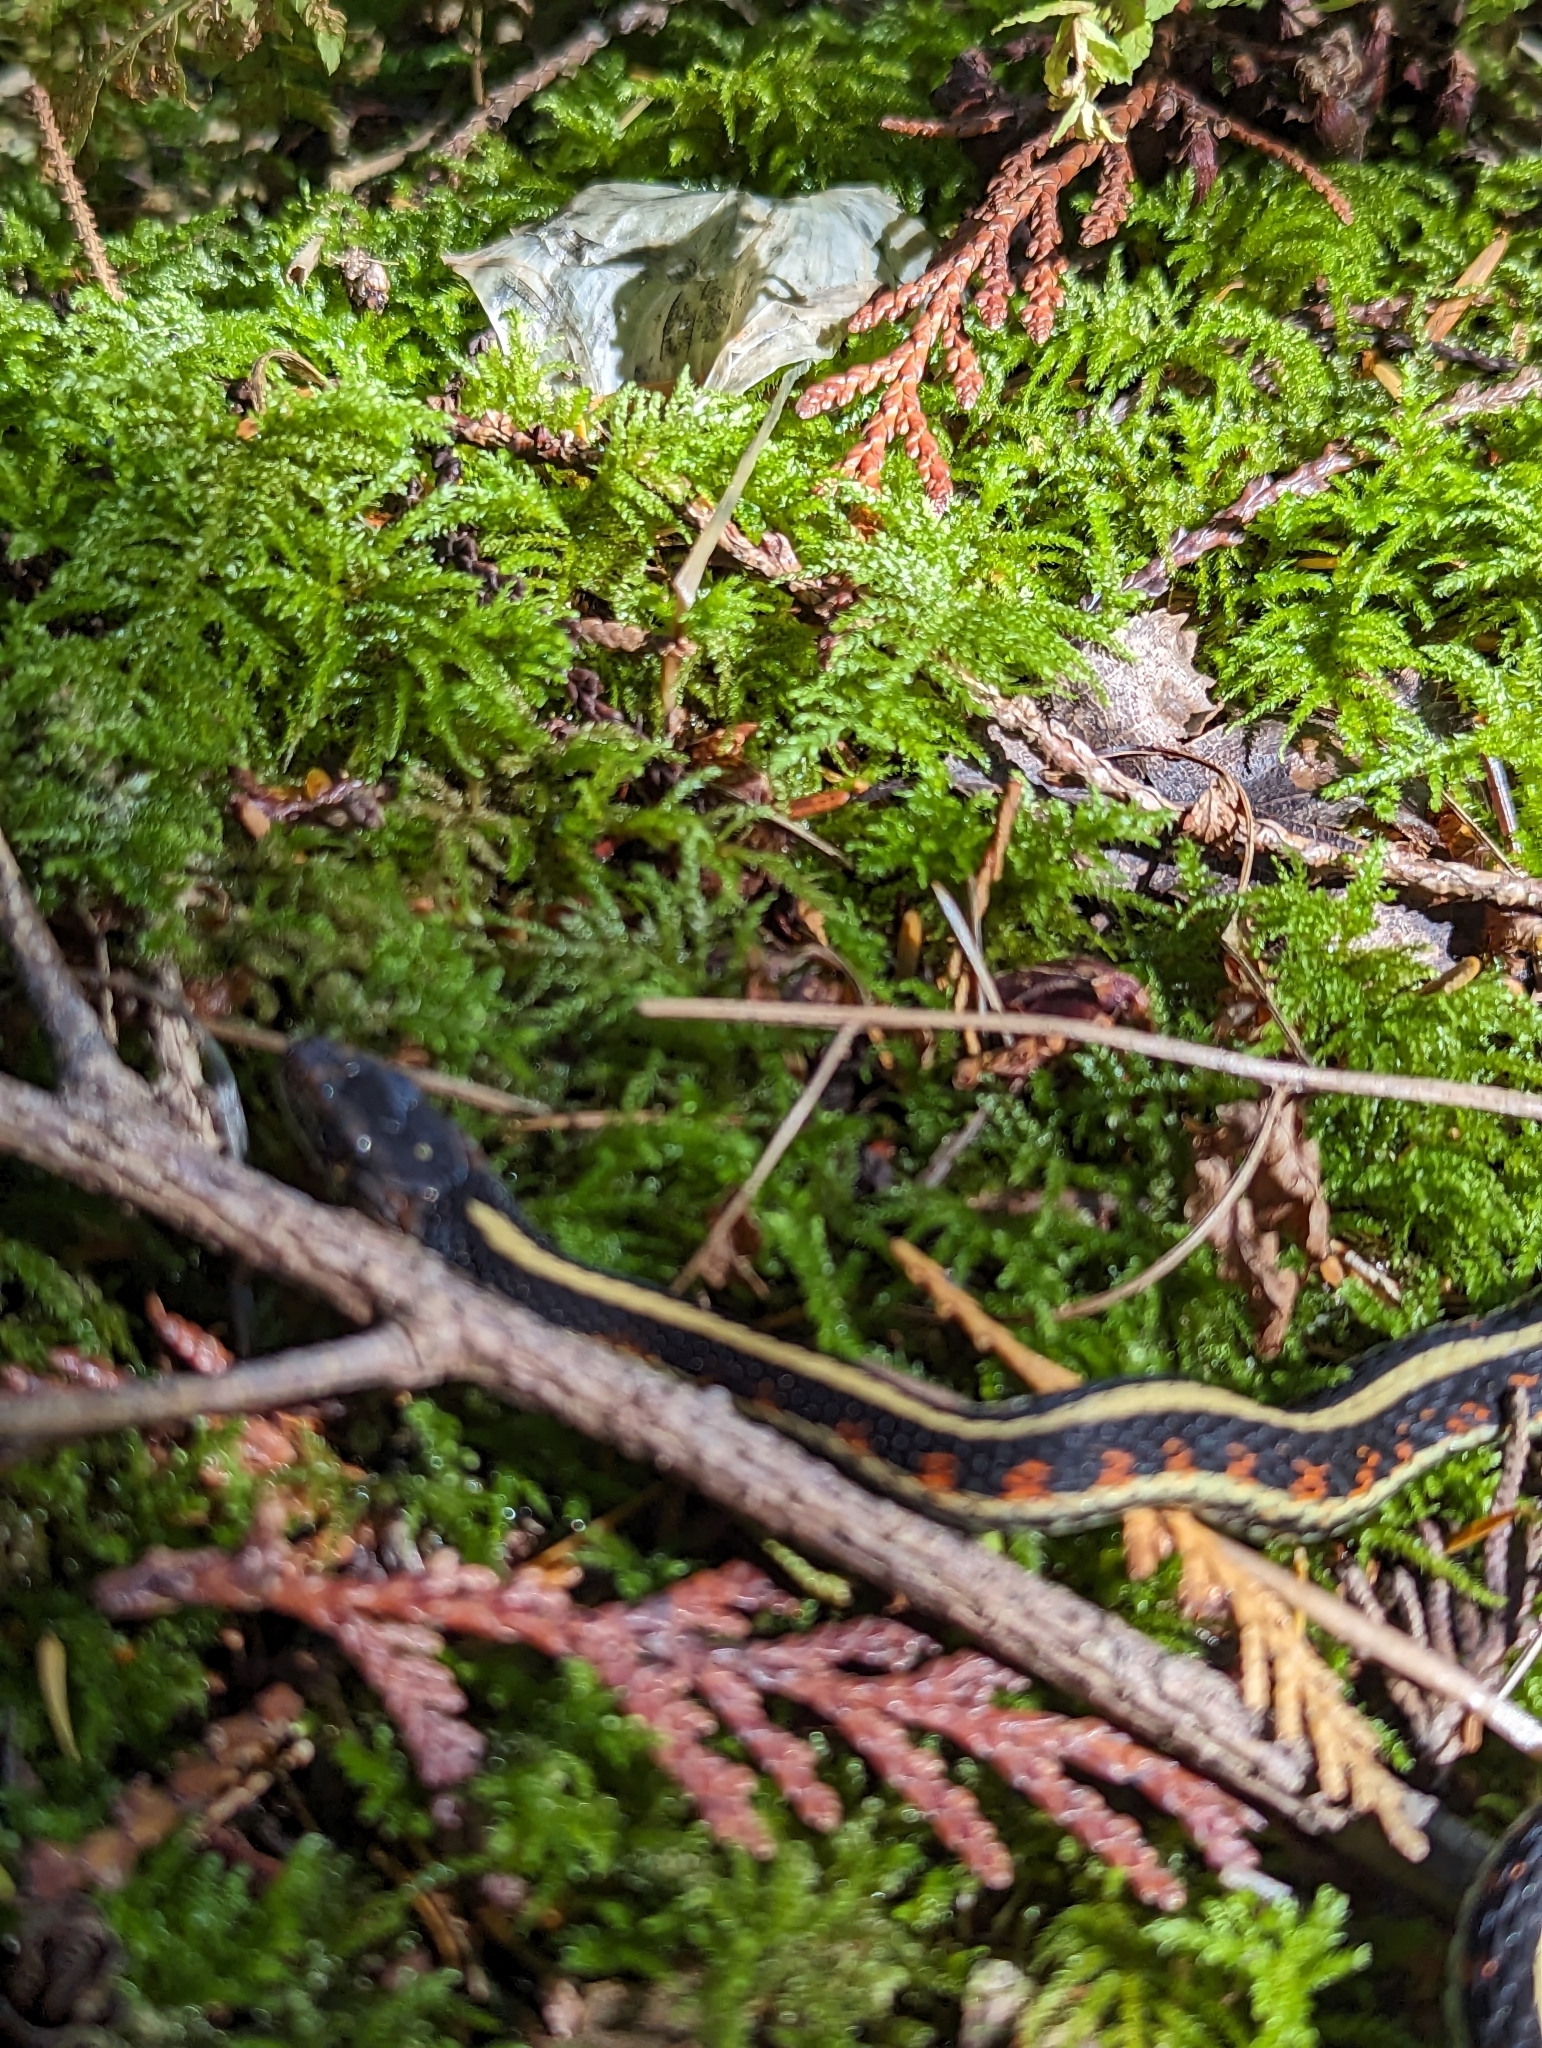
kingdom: Animalia
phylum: Chordata
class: Squamata
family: Colubridae
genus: Thamnophis
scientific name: Thamnophis sirtalis
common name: Common garter snake
